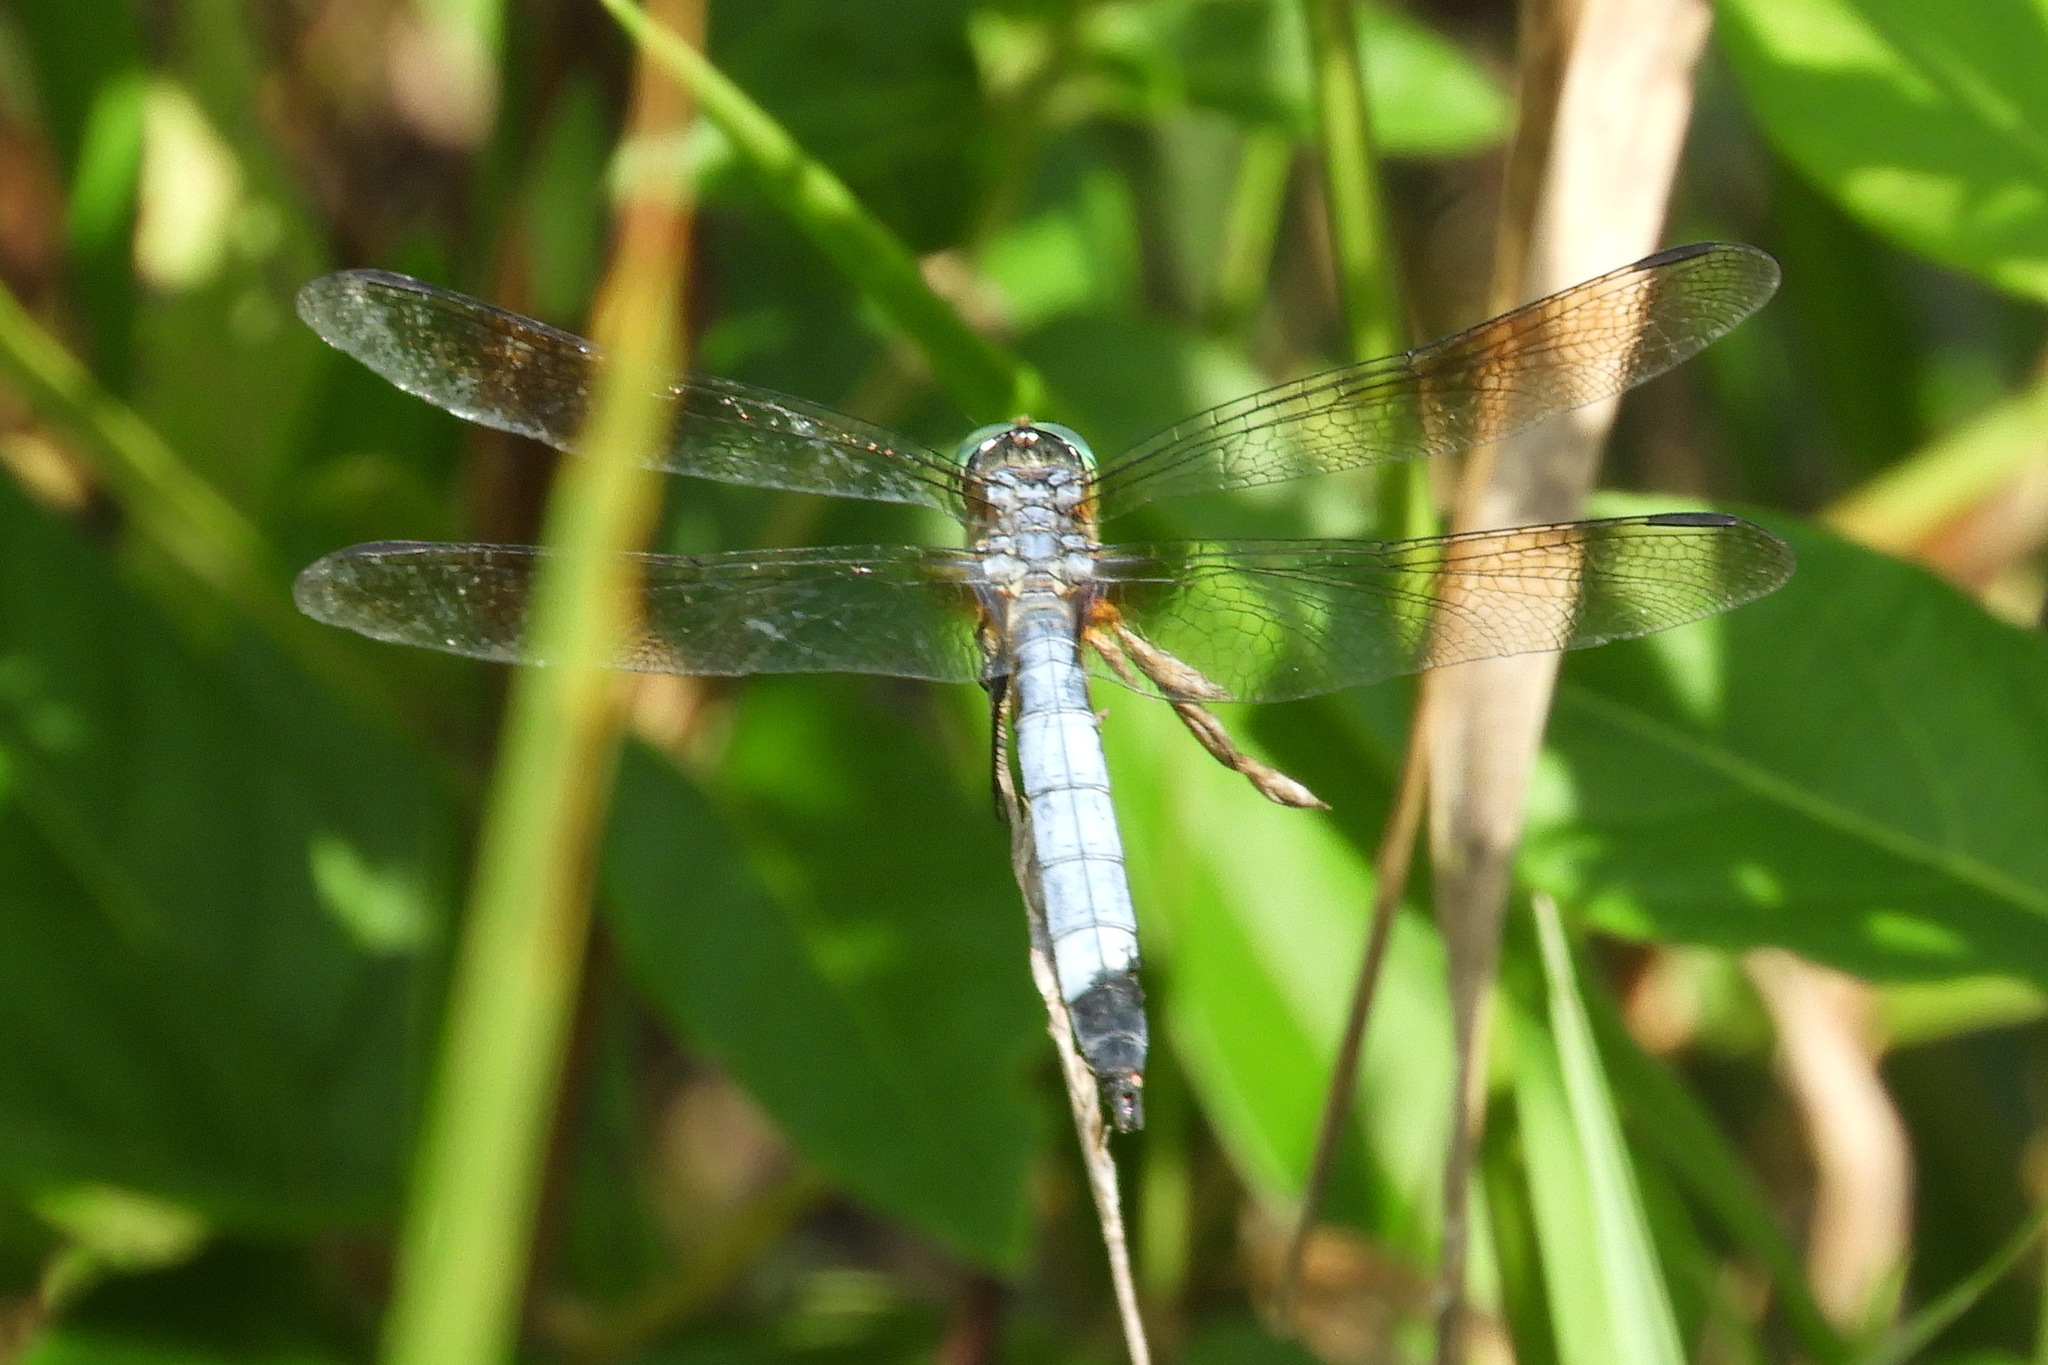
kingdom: Animalia
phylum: Arthropoda
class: Insecta
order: Odonata
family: Libellulidae
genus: Pachydiplax
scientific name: Pachydiplax longipennis
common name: Blue dasher
